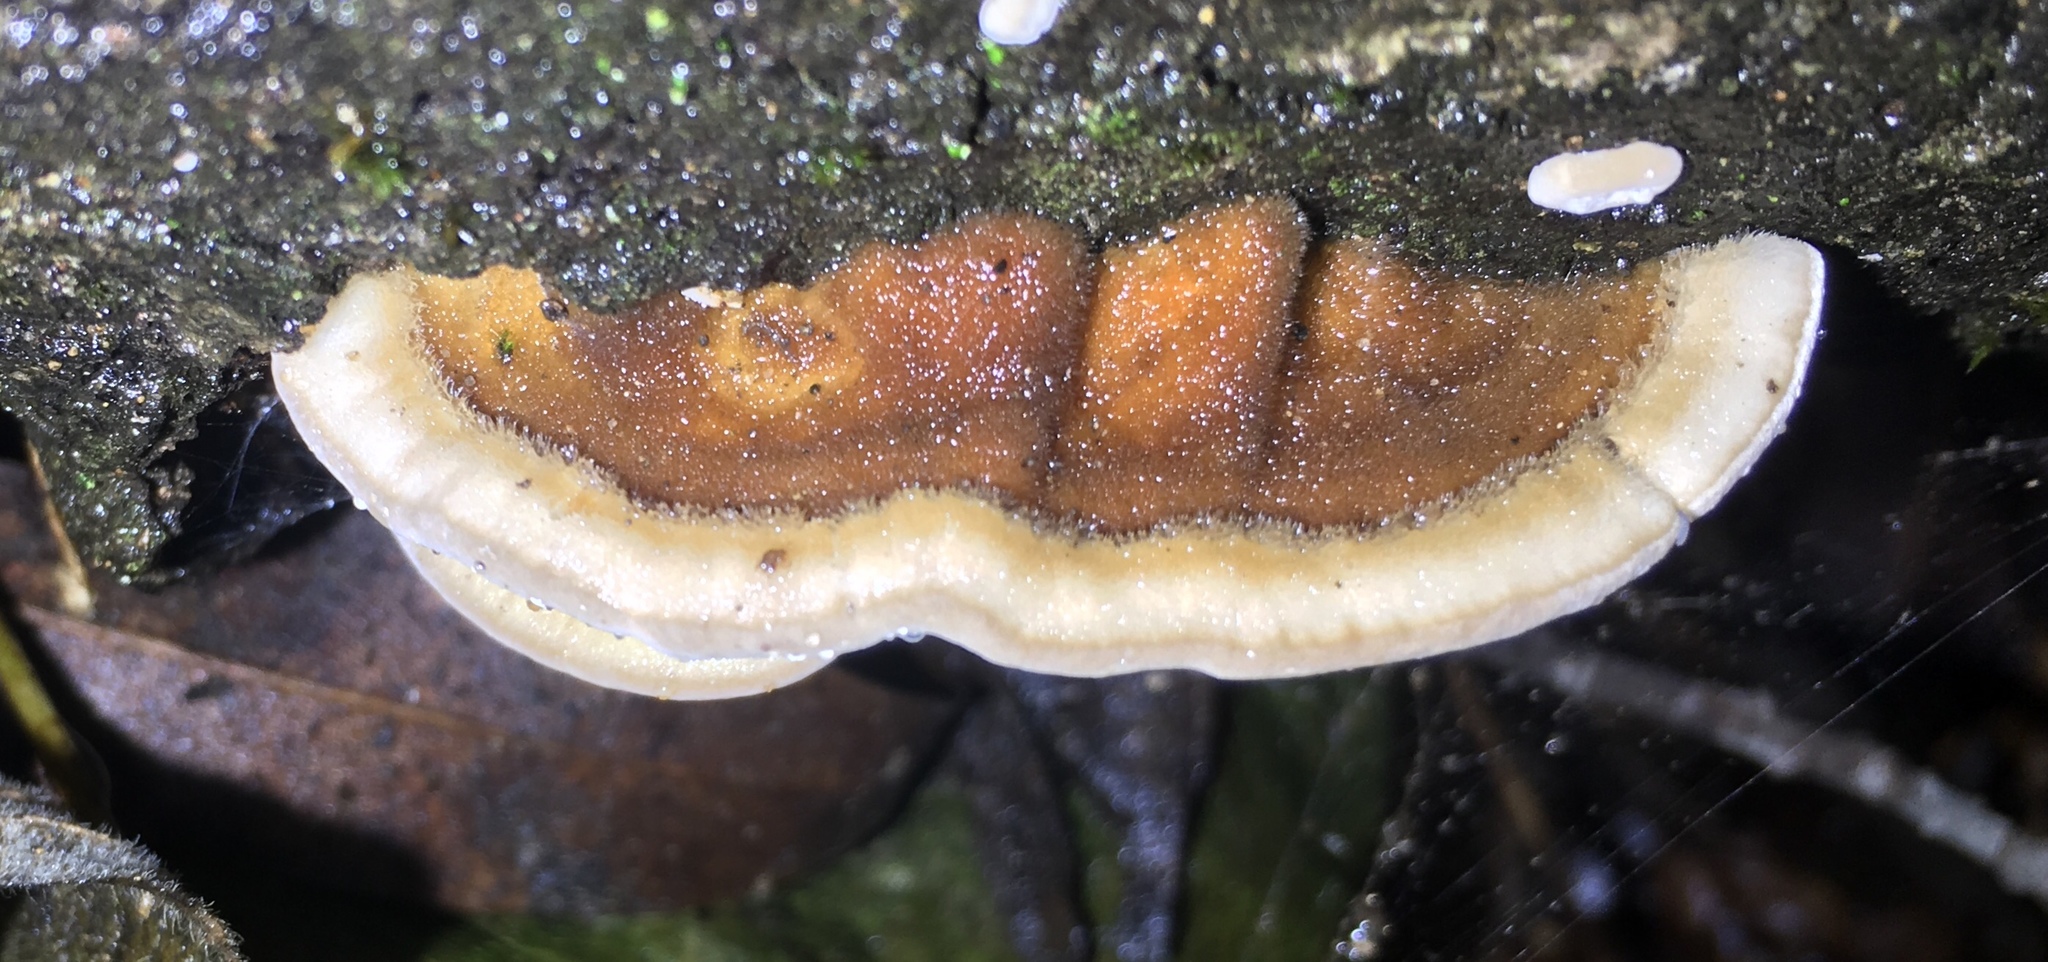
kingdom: Fungi
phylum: Basidiomycota
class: Agaricomycetes
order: Polyporales
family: Polyporaceae
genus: Trametes
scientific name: Trametes versicolor
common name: Turkeytail
